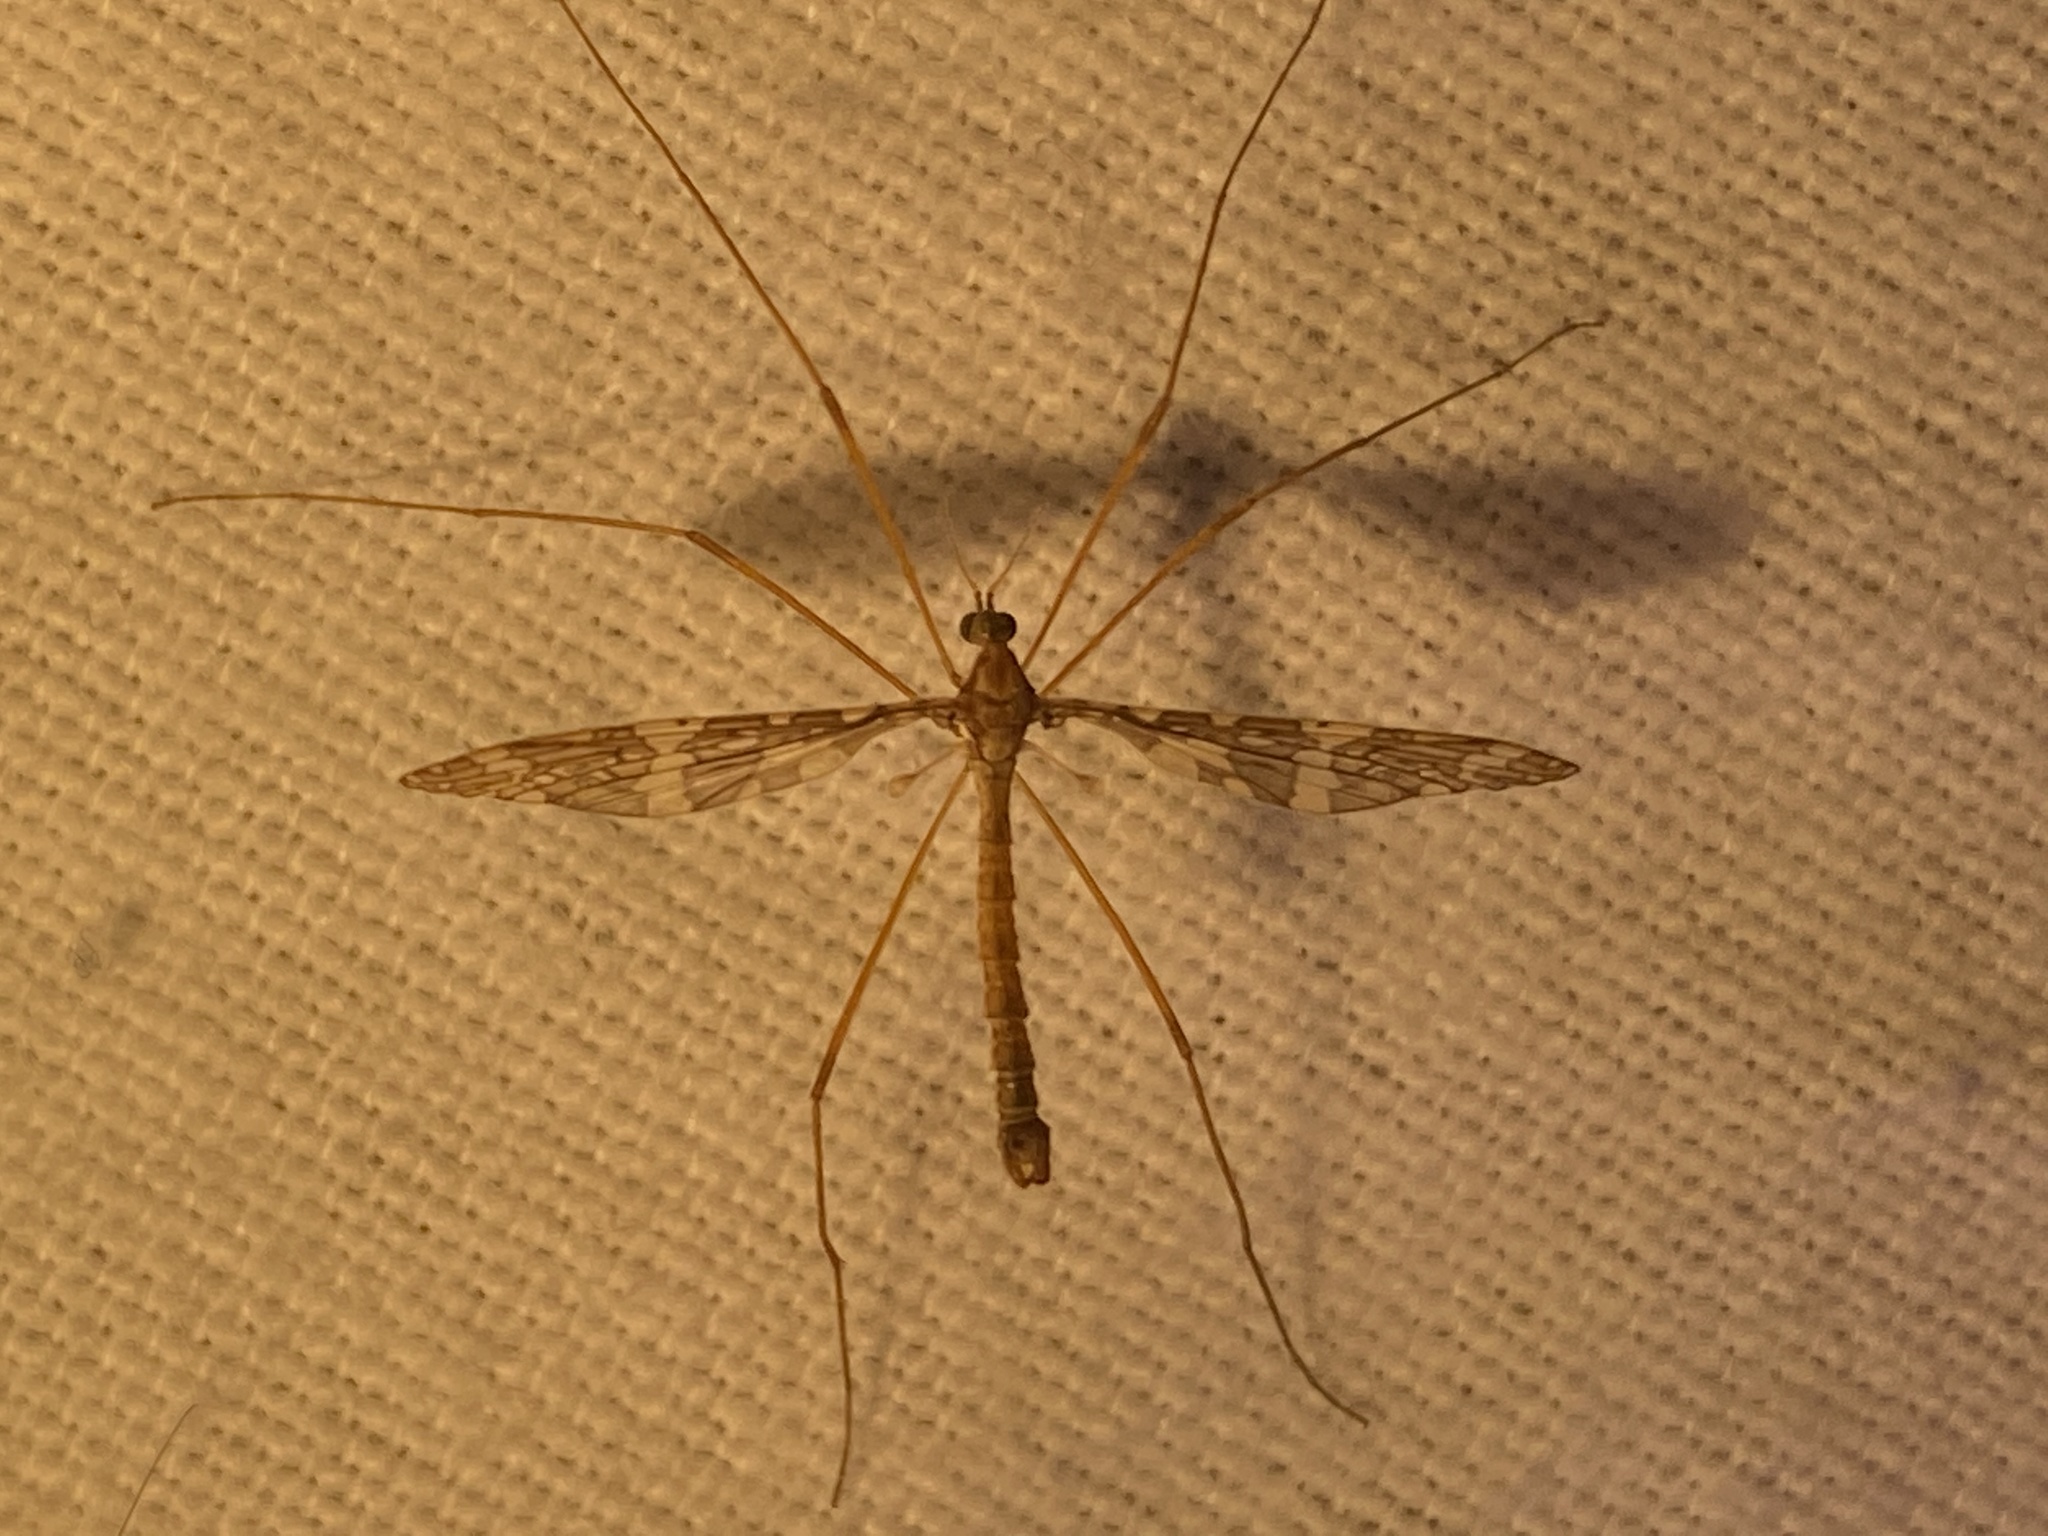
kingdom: Animalia
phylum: Arthropoda
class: Insecta
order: Diptera
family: Limoniidae
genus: Epiphragma
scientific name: Epiphragma fasciapenne
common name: Band-winged crane fly
